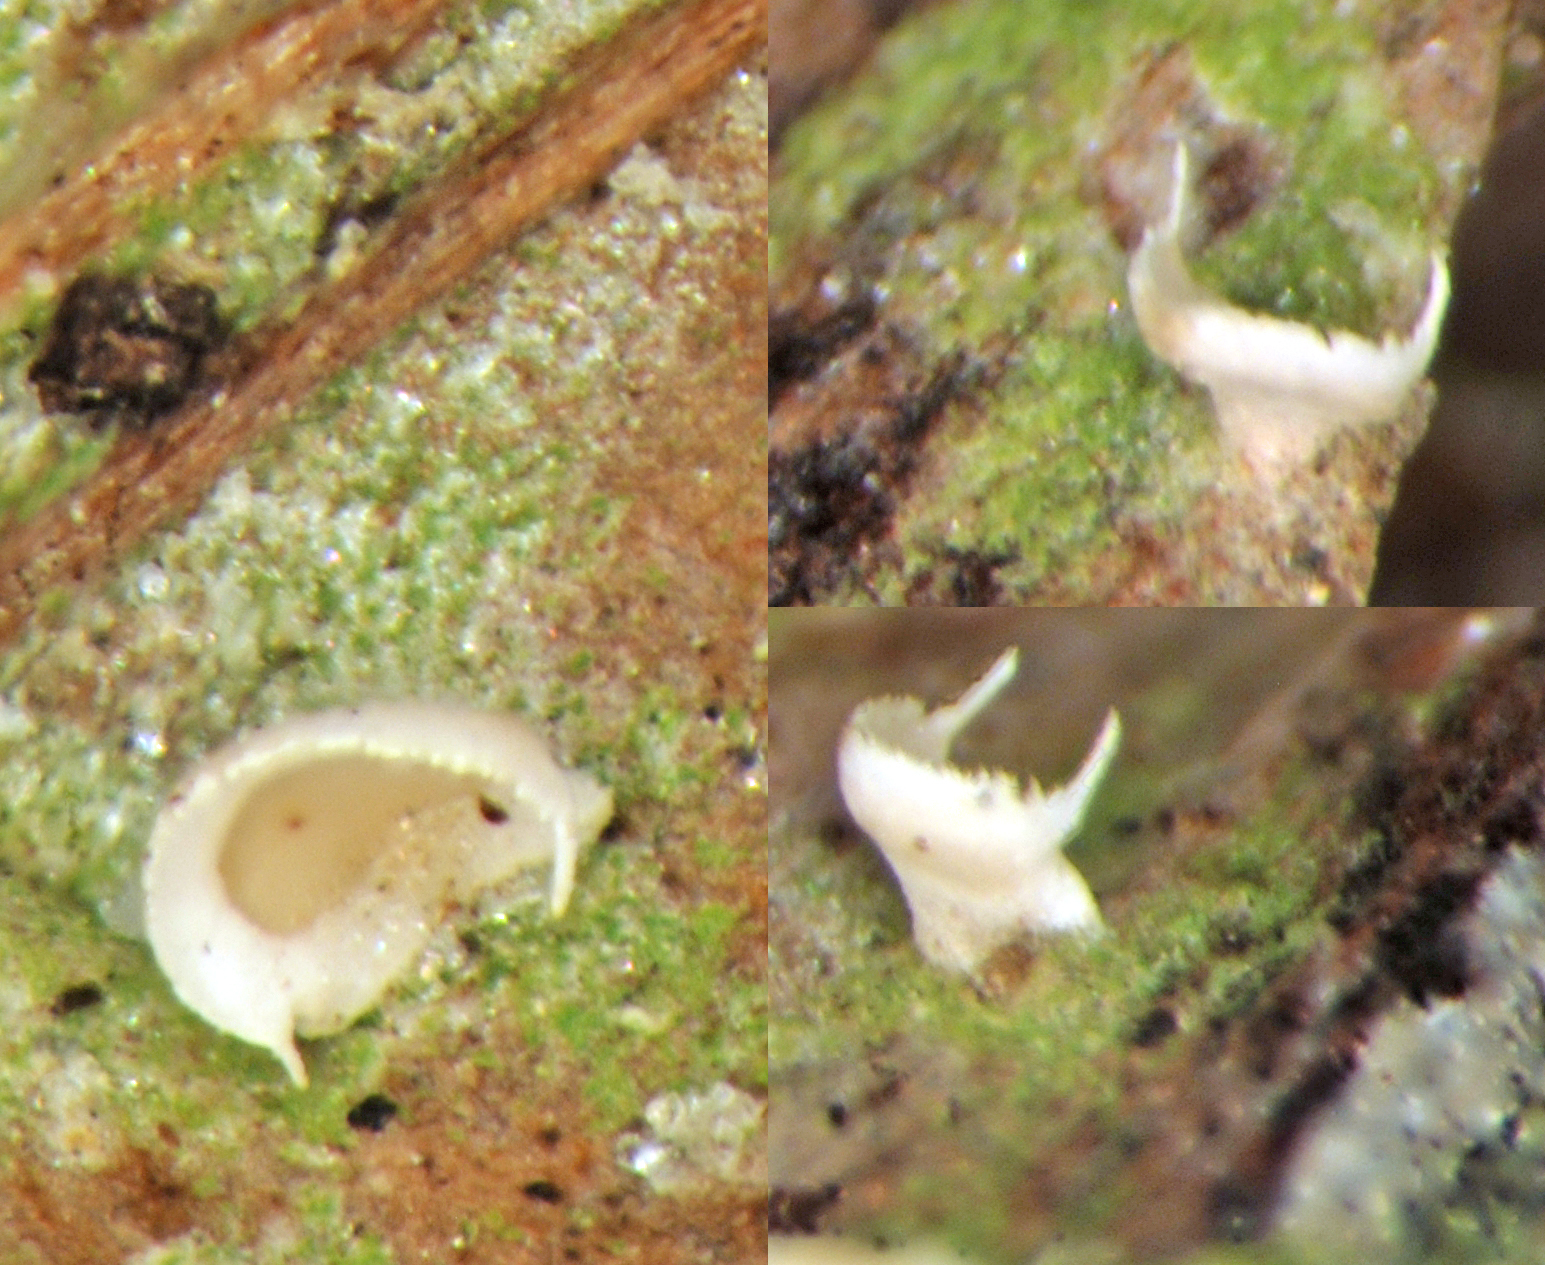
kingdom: Fungi
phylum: Ascomycota
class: Lecanoromycetes
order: Lecanorales
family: Byssolomataceae
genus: Badimiella
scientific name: Badimiella pteridophila
